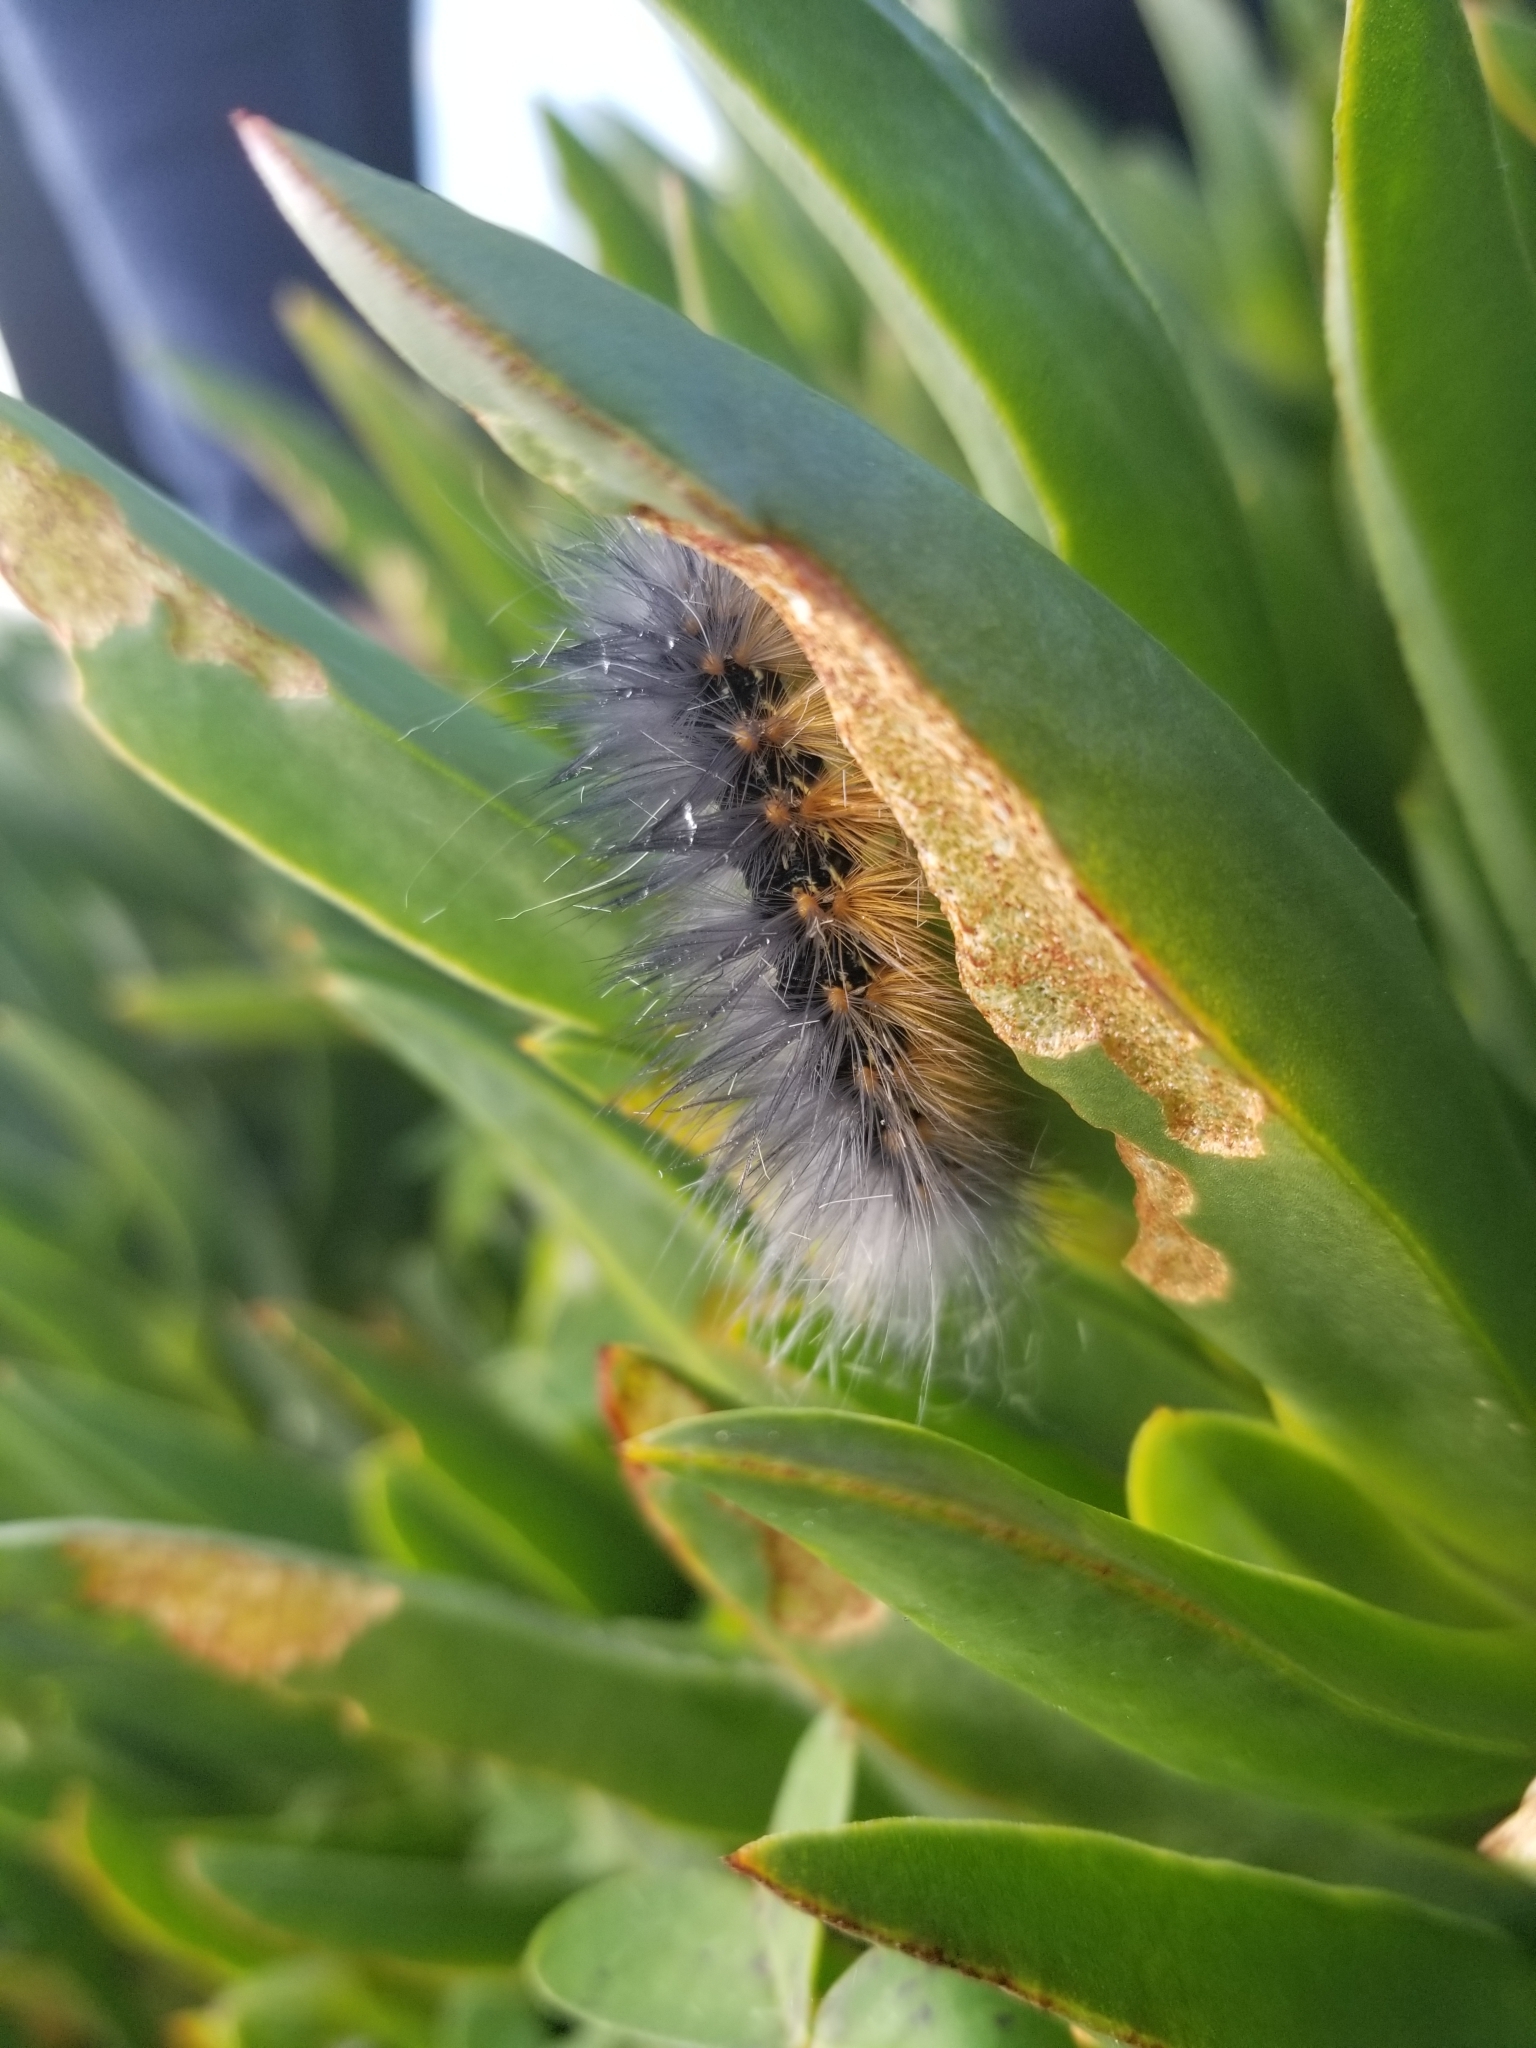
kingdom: Animalia
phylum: Arthropoda
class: Insecta
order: Lepidoptera
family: Erebidae
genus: Estigmene
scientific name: Estigmene acrea
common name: Salt marsh moth
